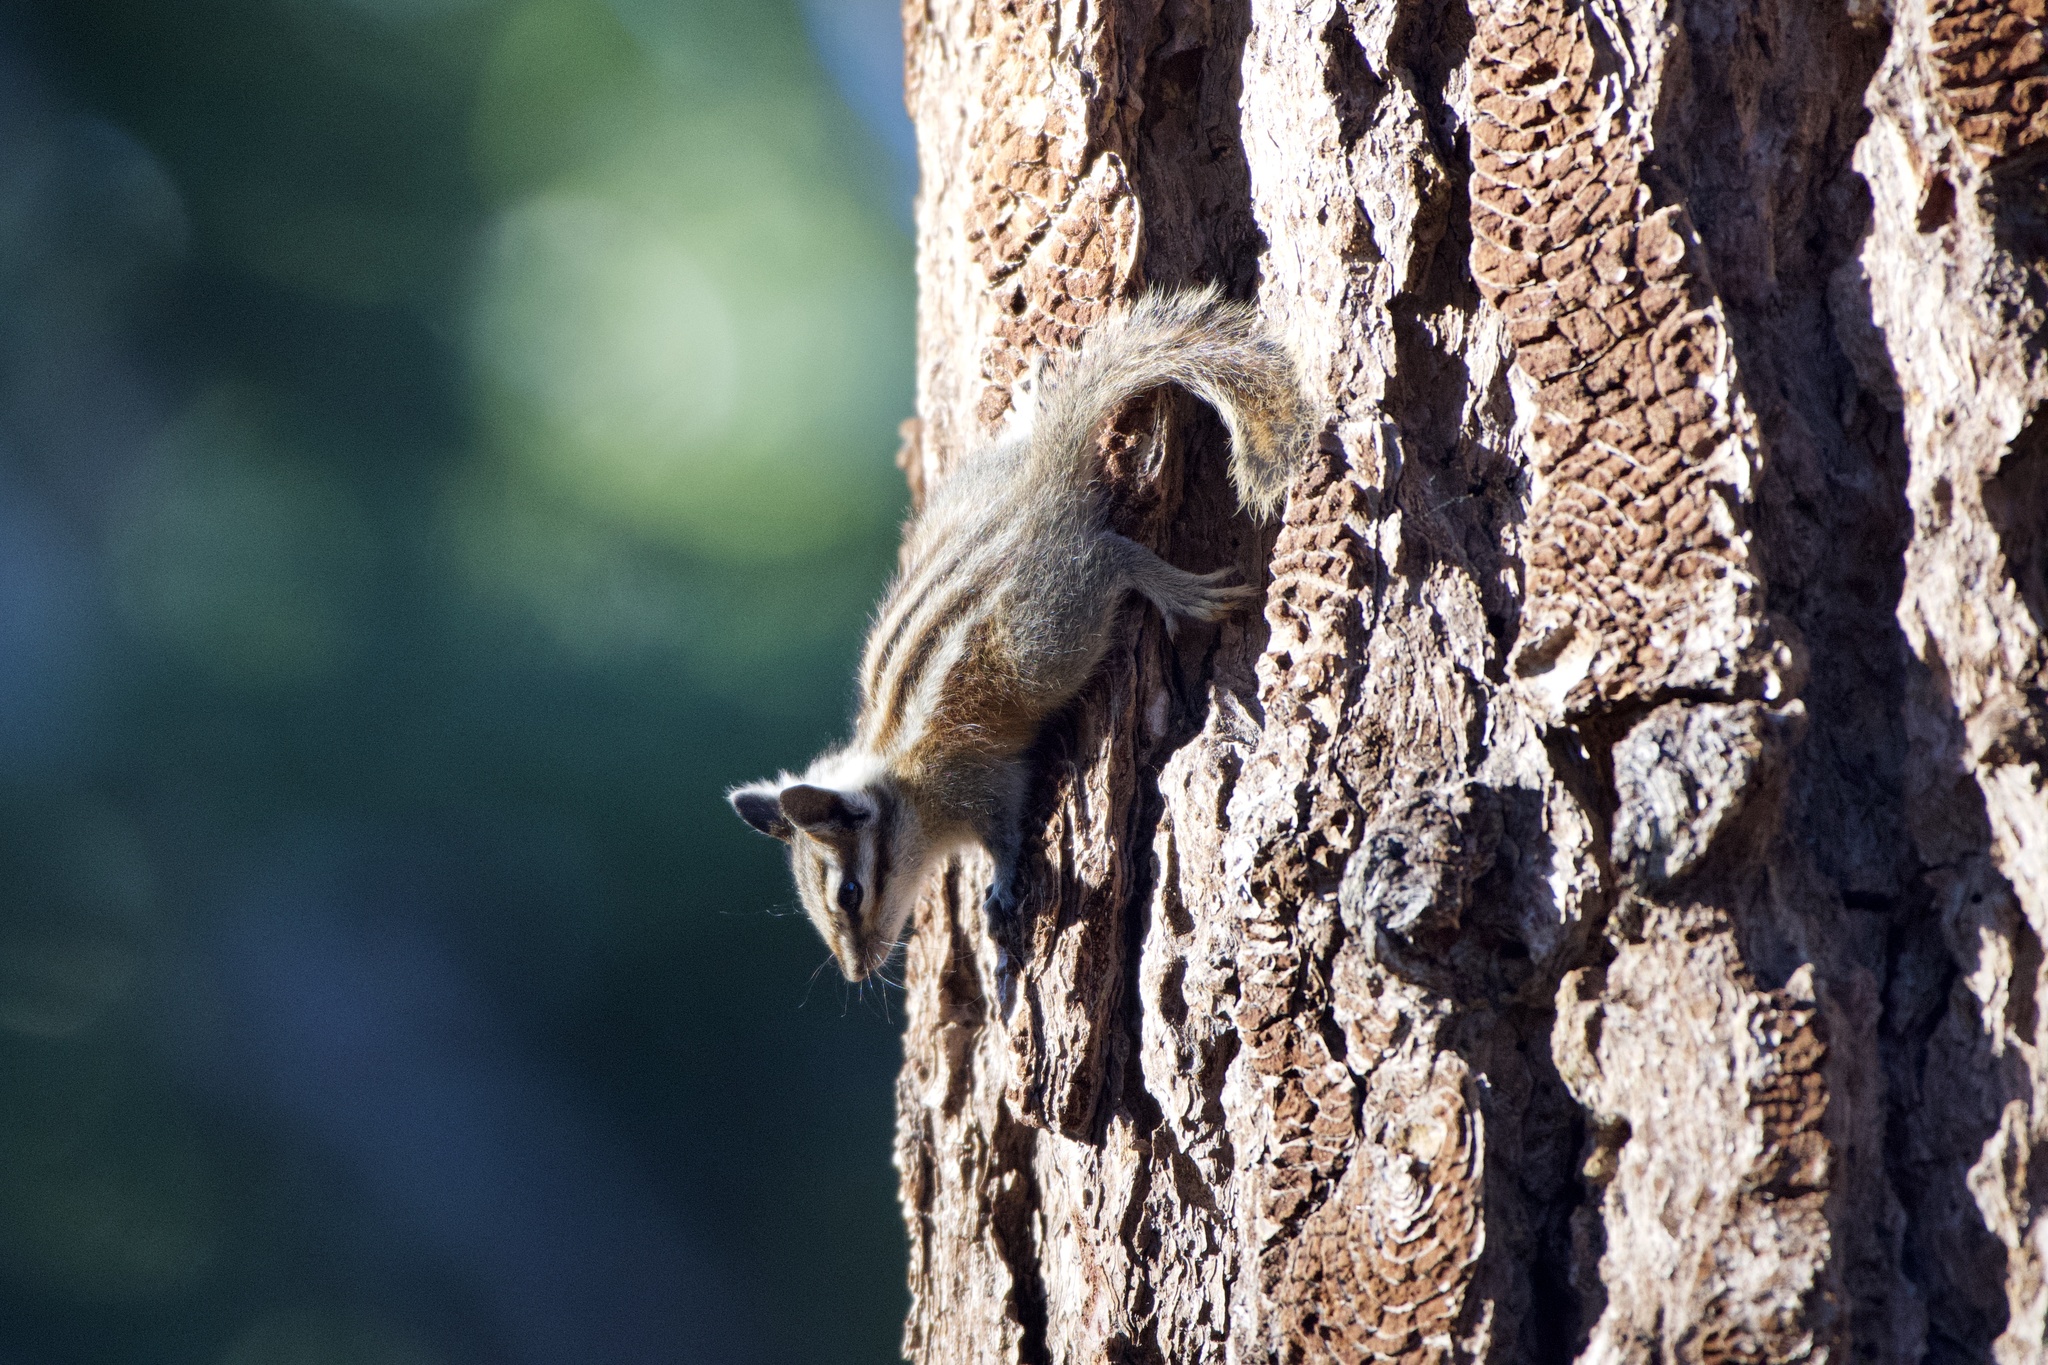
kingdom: Animalia
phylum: Chordata
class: Mammalia
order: Rodentia
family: Sciuridae
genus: Tamias
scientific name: Tamias speciosus
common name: Lodgepole chipmunk
